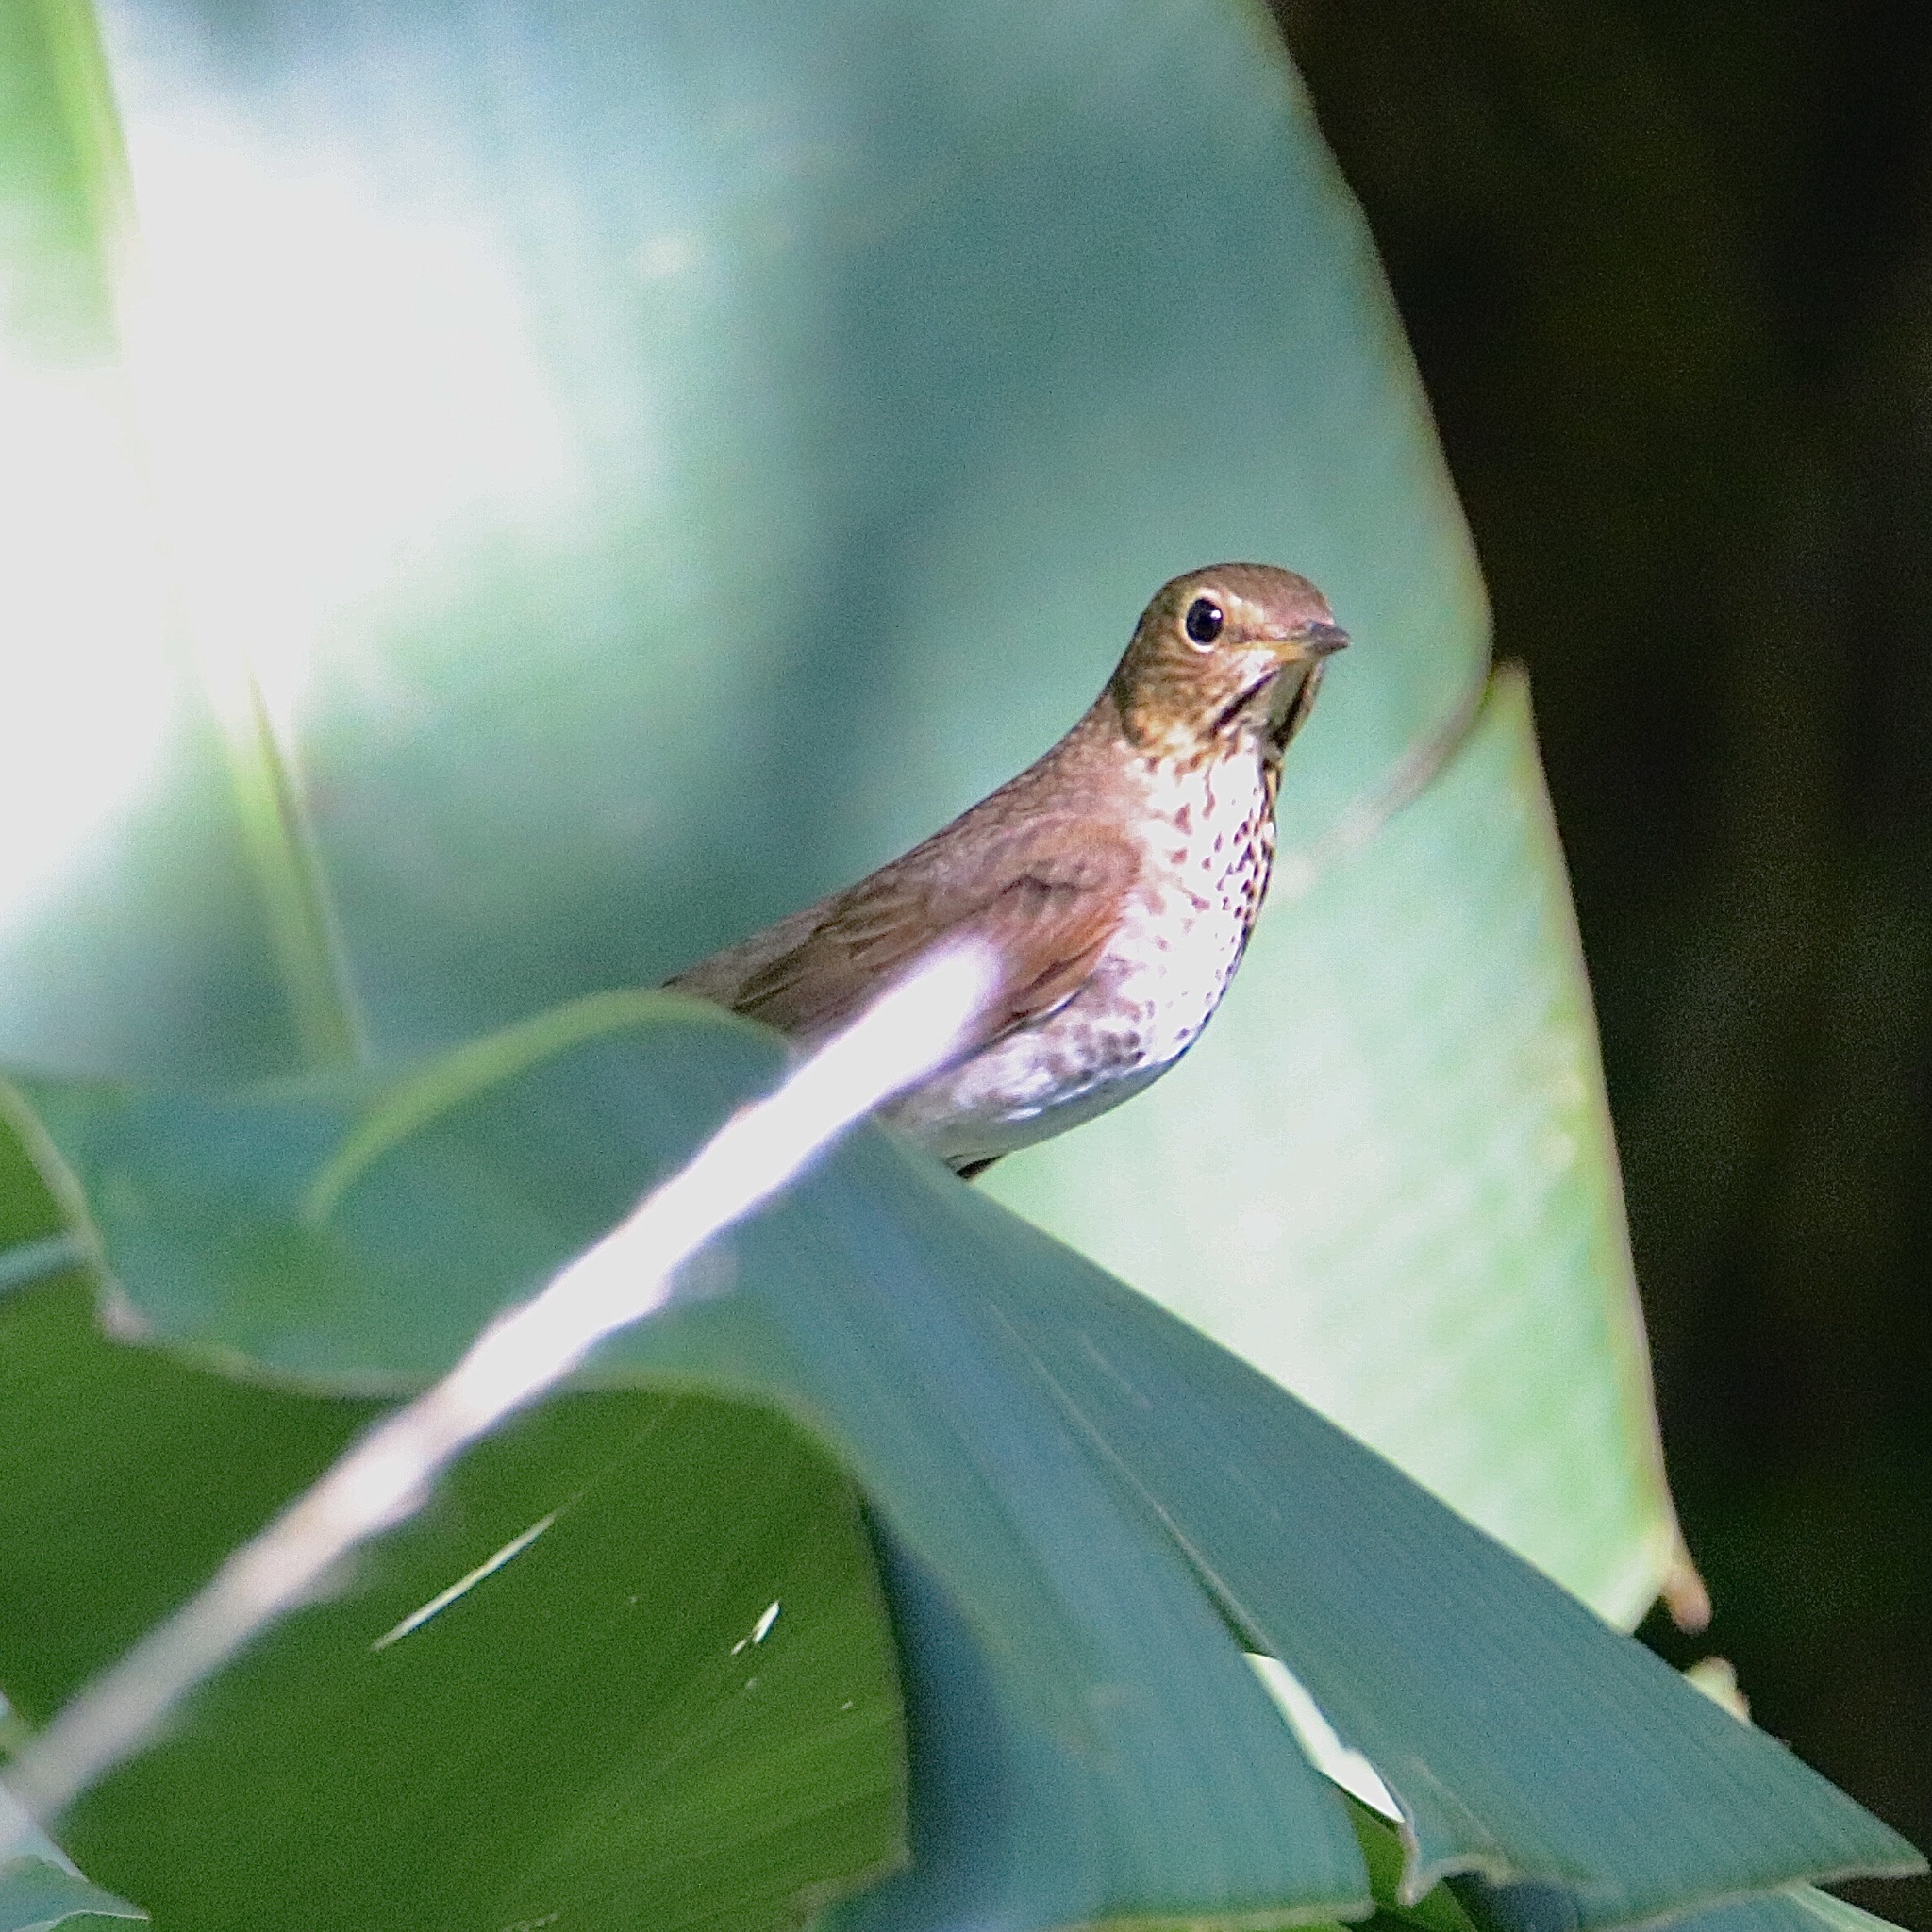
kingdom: Animalia
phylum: Chordata
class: Aves
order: Passeriformes
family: Turdidae
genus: Catharus
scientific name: Catharus ustulatus
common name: Swainson's thrush
